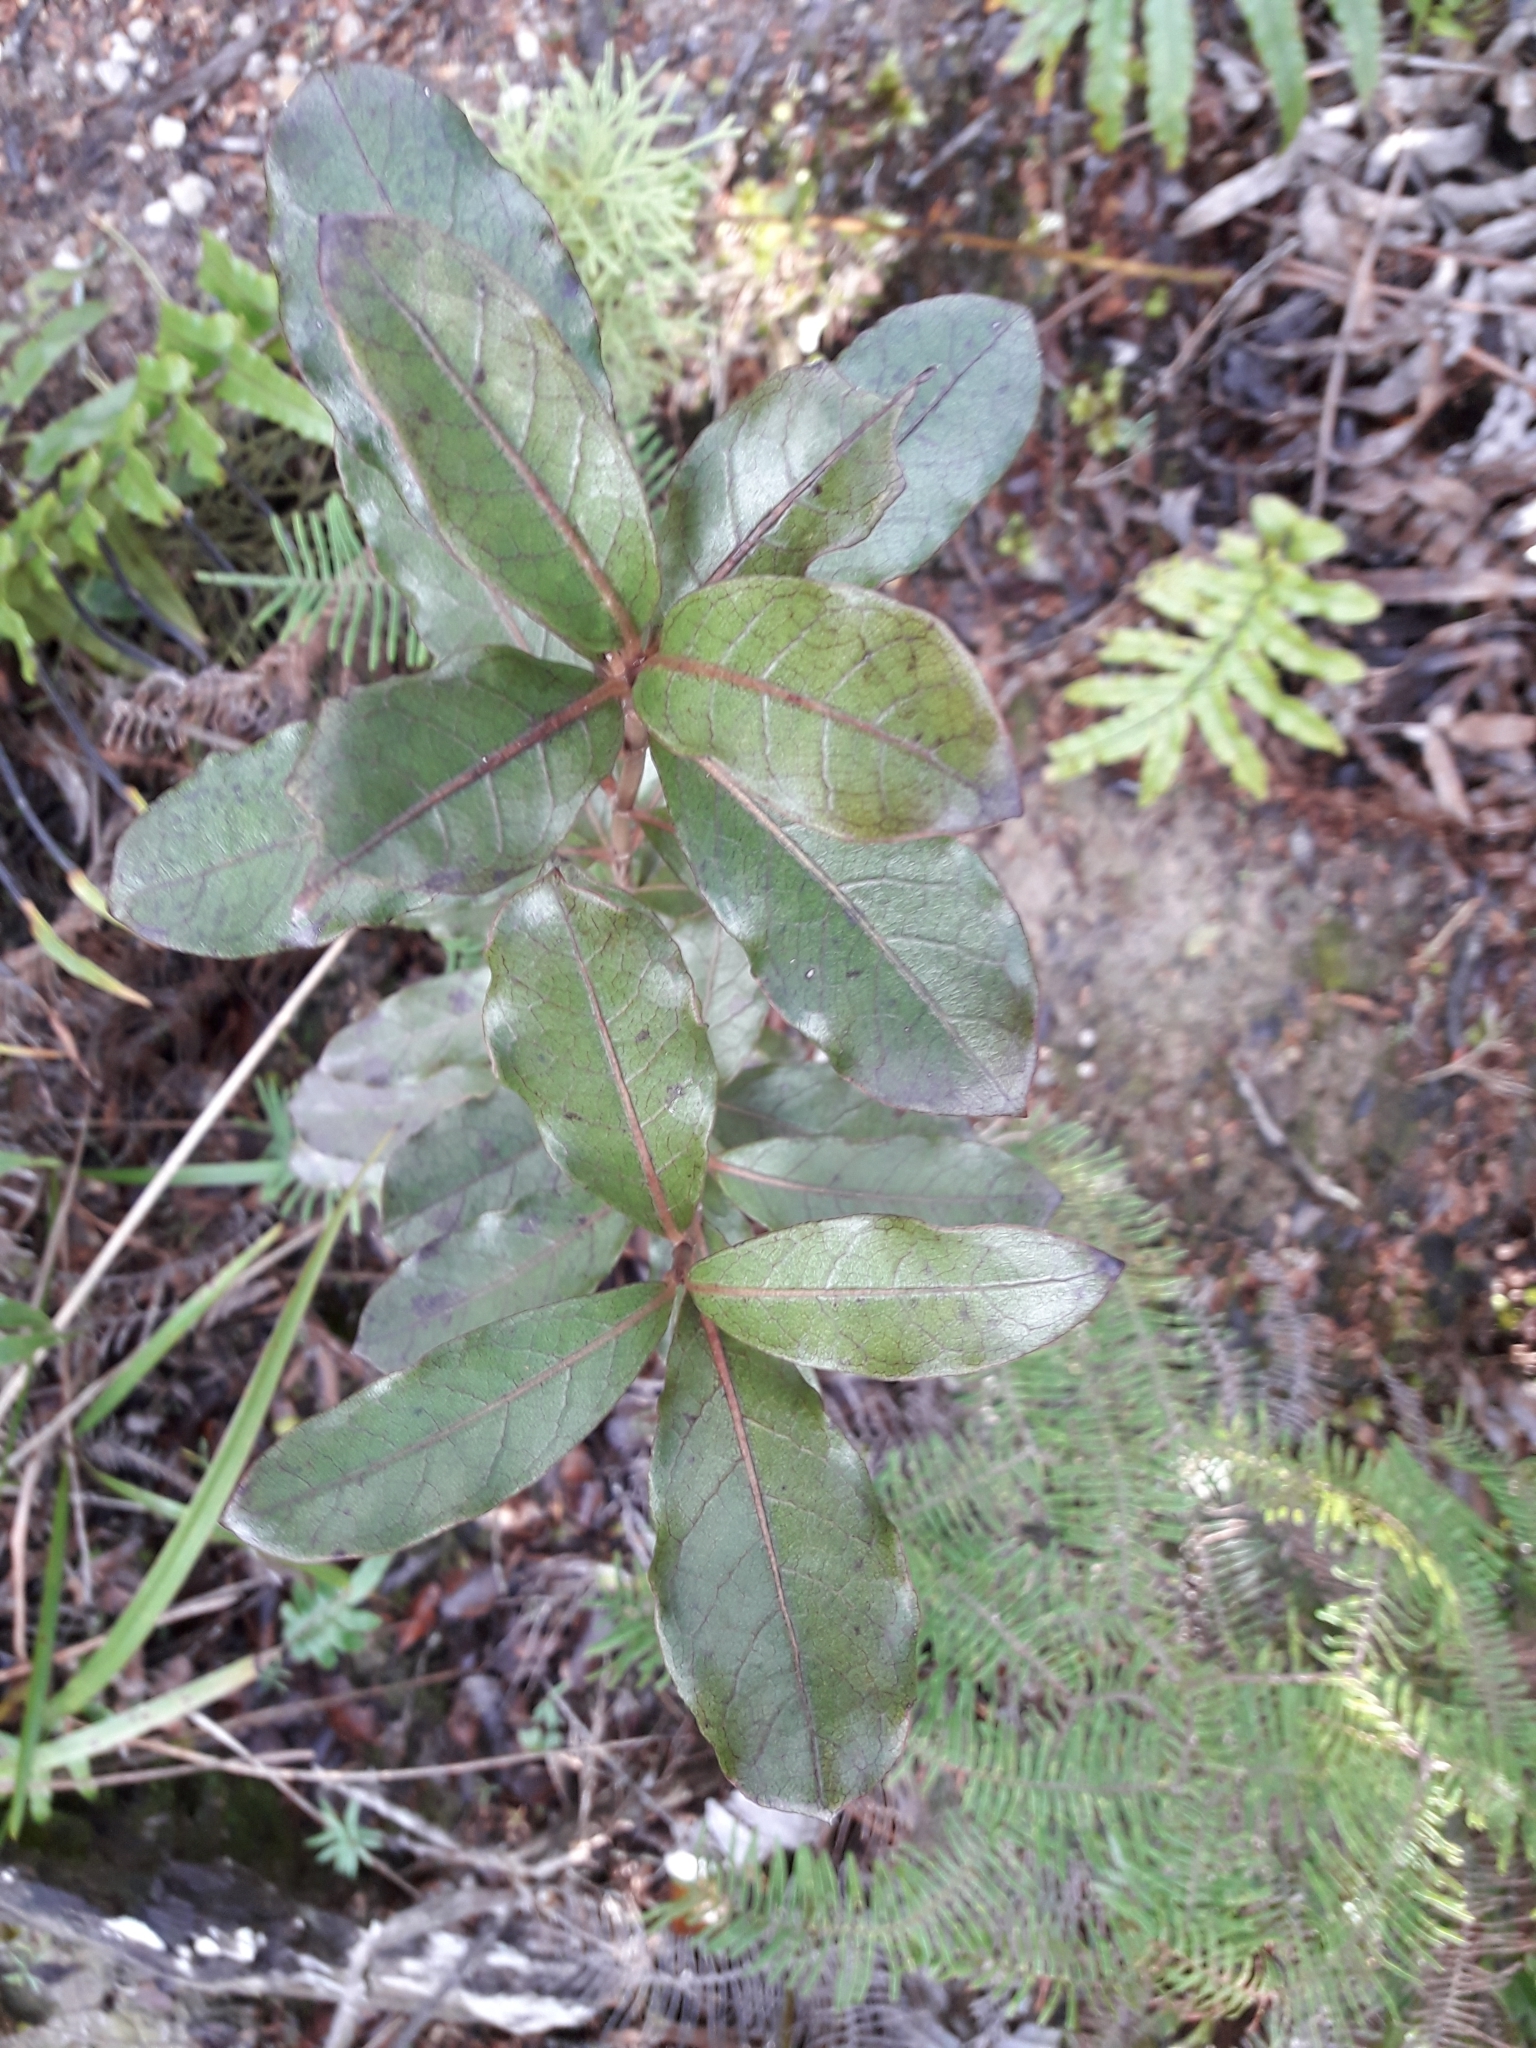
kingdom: Plantae
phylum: Tracheophyta
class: Magnoliopsida
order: Gentianales
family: Rubiaceae
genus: Coprosma
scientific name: Coprosma dodonaeifolia
